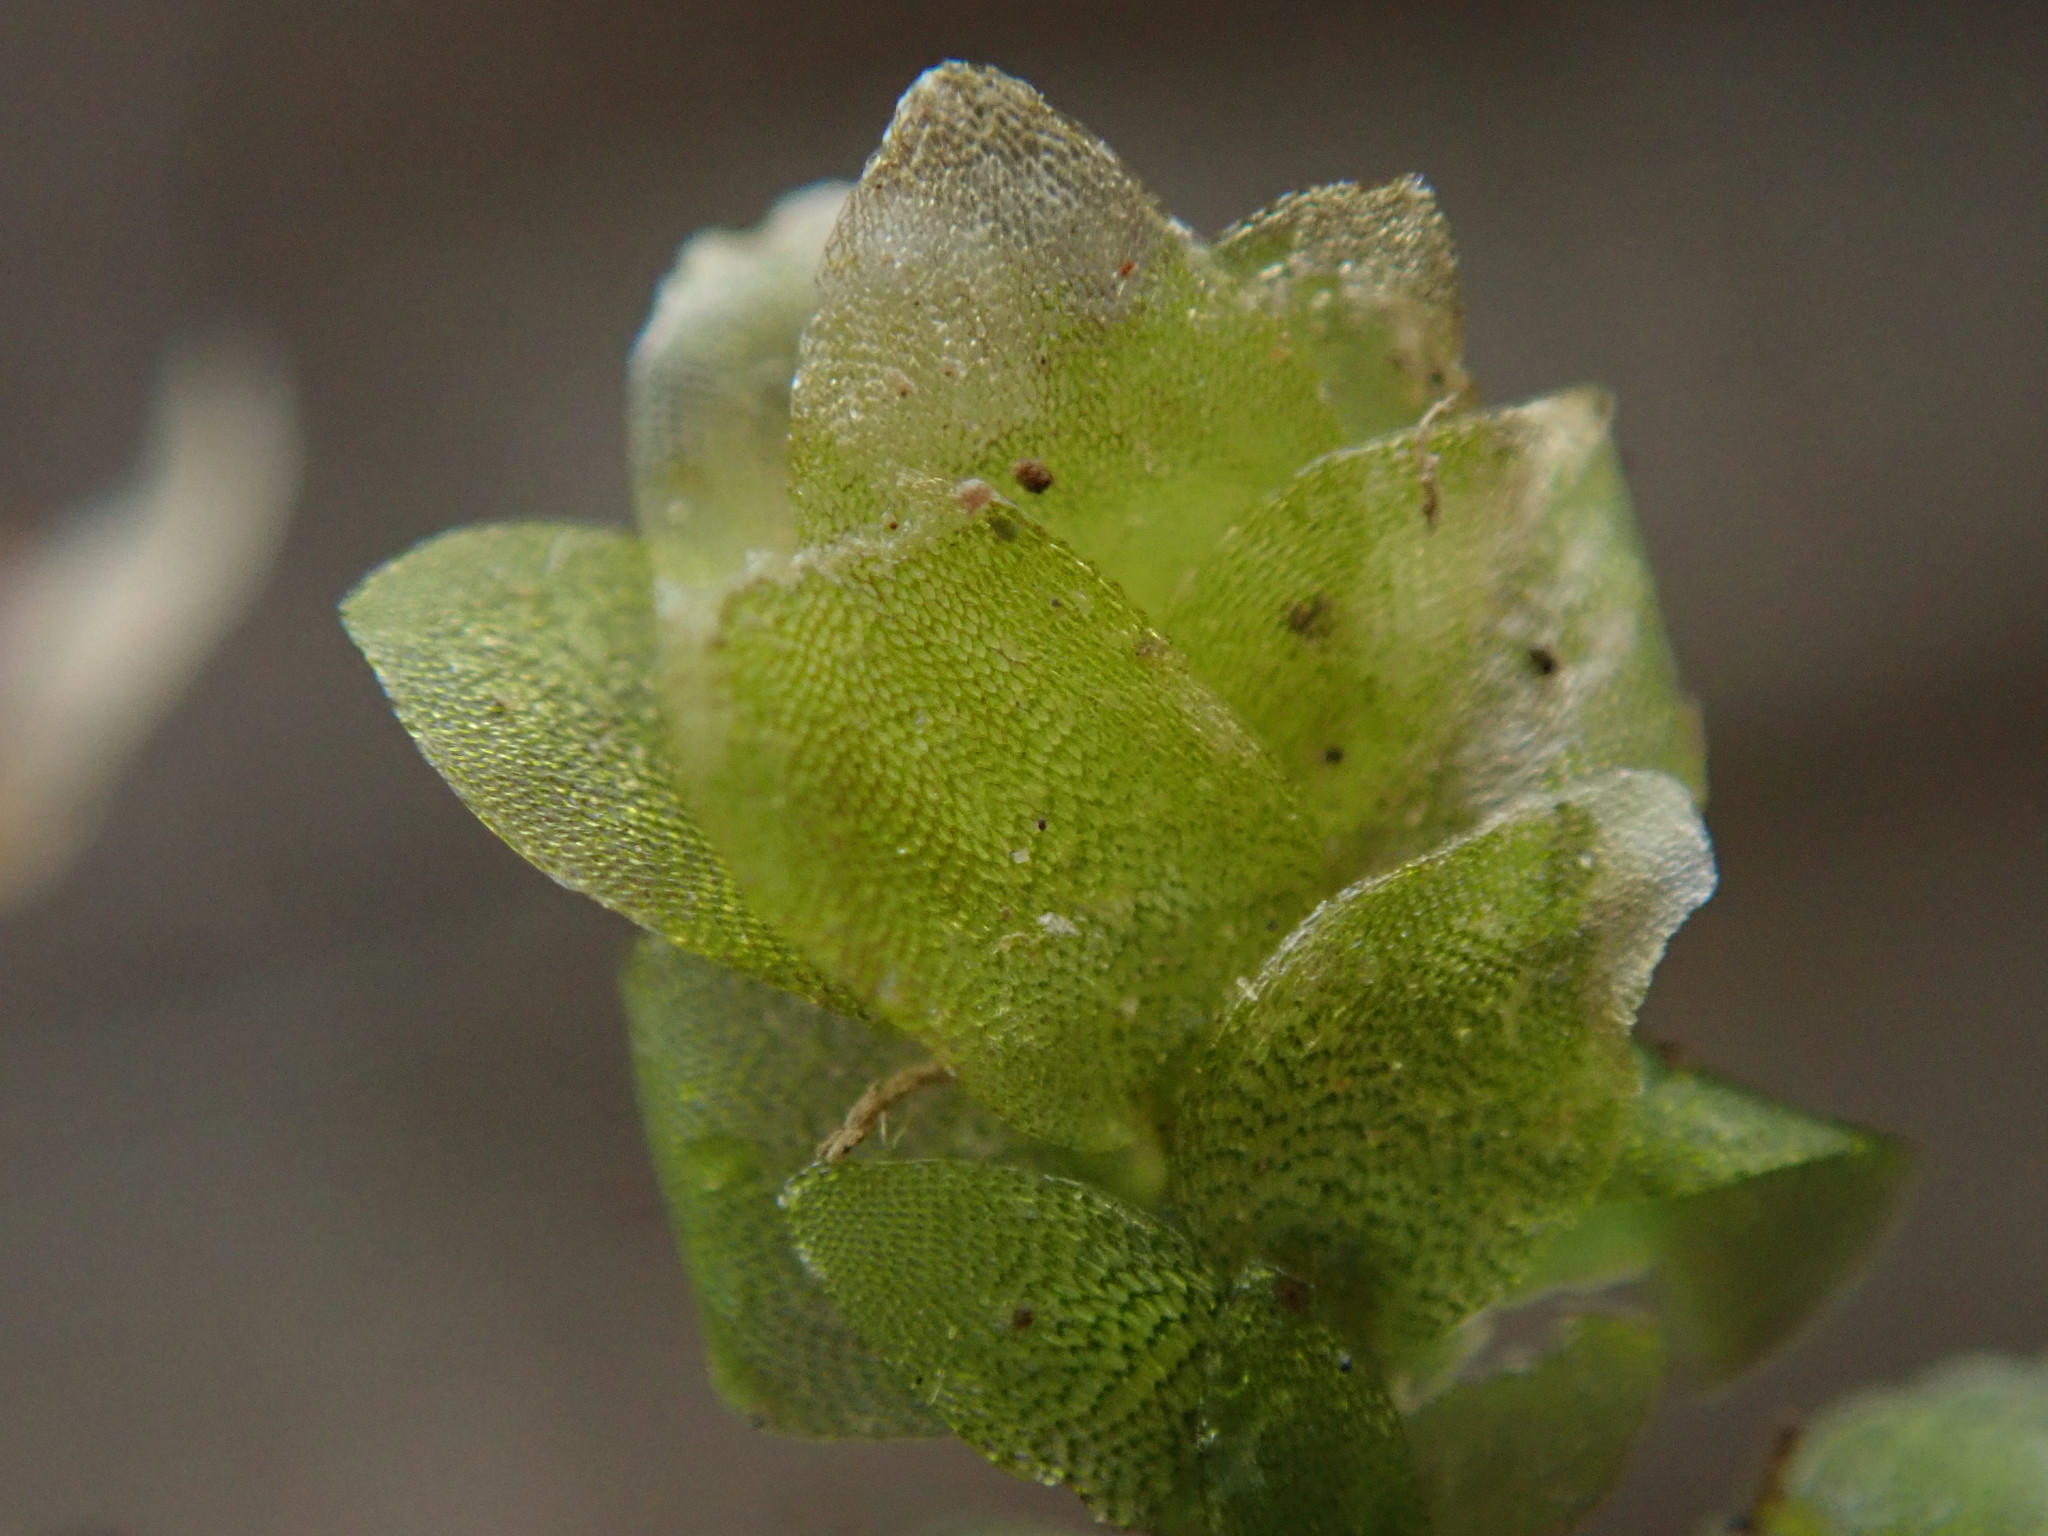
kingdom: Plantae
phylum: Bryophyta
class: Bryopsida
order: Hookeriales
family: Hookeriaceae
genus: Hookeria
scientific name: Hookeria lucens
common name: Shining hookeria
